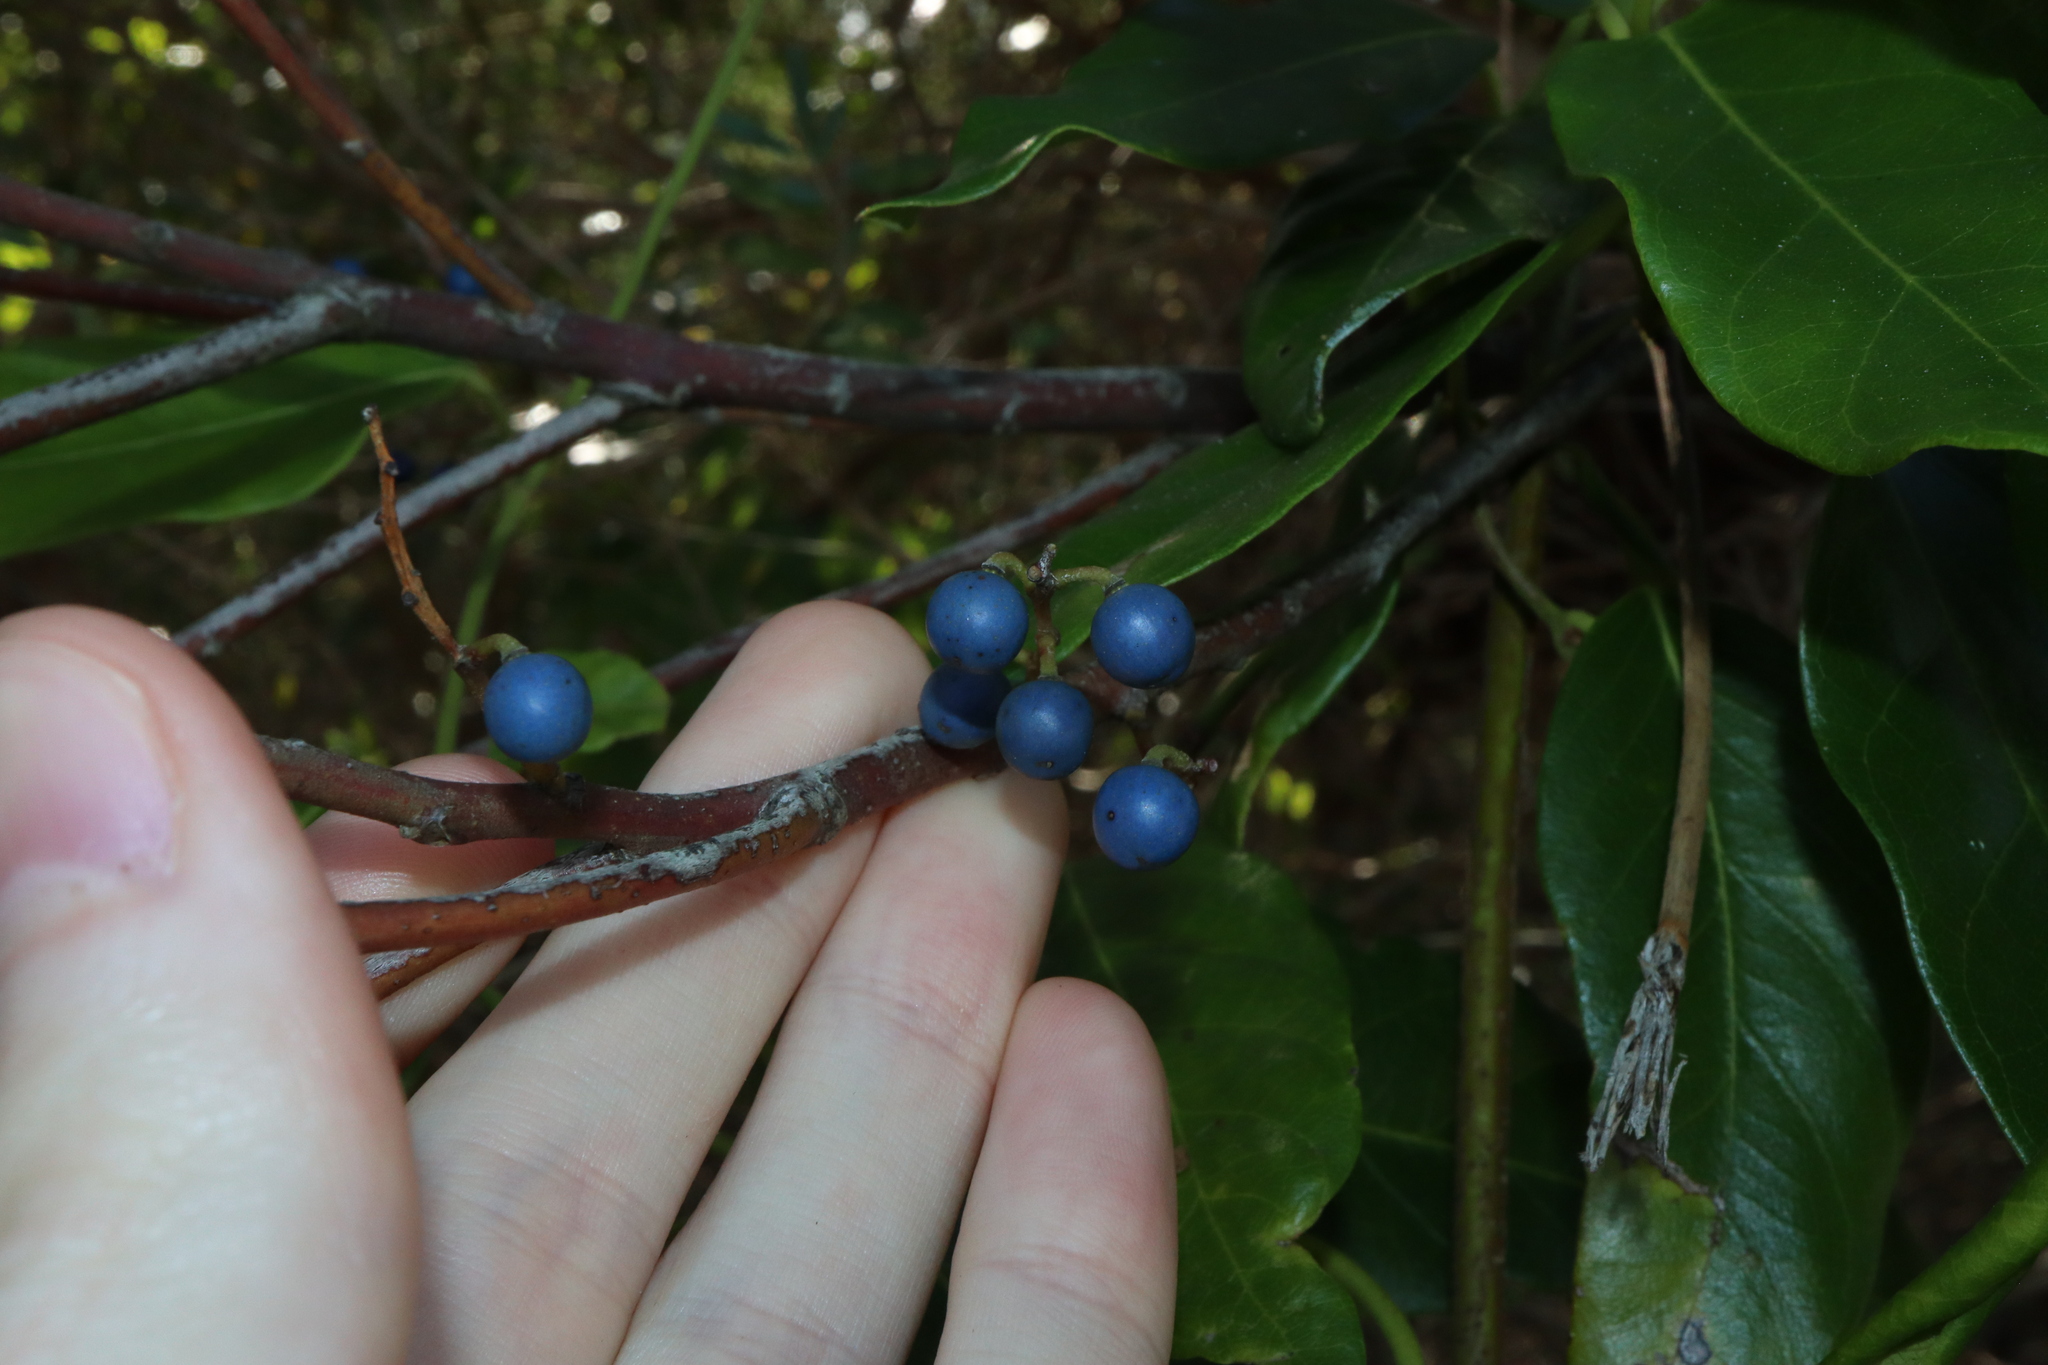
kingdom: Plantae
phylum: Tracheophyta
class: Magnoliopsida
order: Oxalidales
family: Elaeocarpaceae
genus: Elaeocarpus
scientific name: Elaeocarpus reticulatus
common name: Ash quandong
